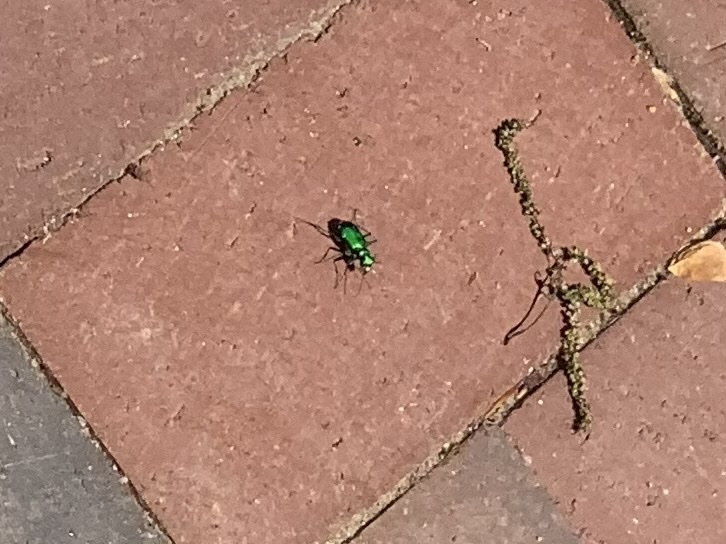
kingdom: Animalia
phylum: Arthropoda
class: Insecta
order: Coleoptera
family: Carabidae
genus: Cicindela
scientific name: Cicindela sexguttata
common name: Six-spotted tiger beetle
